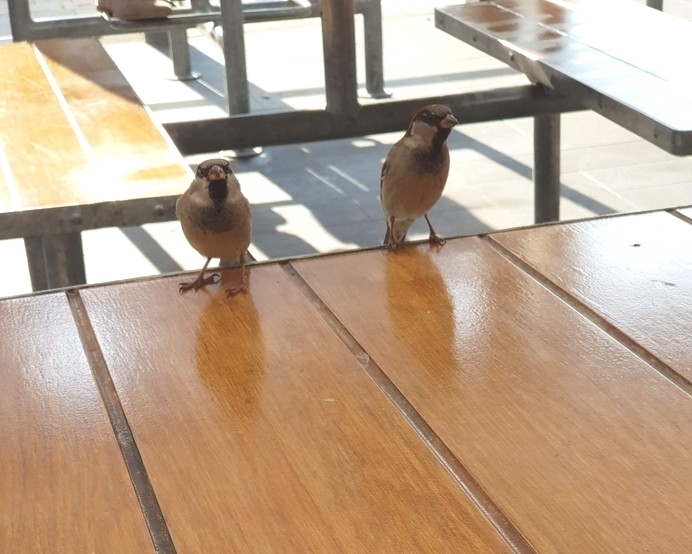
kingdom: Animalia
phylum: Chordata
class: Aves
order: Passeriformes
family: Passeridae
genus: Passer
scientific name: Passer domesticus
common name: House sparrow
